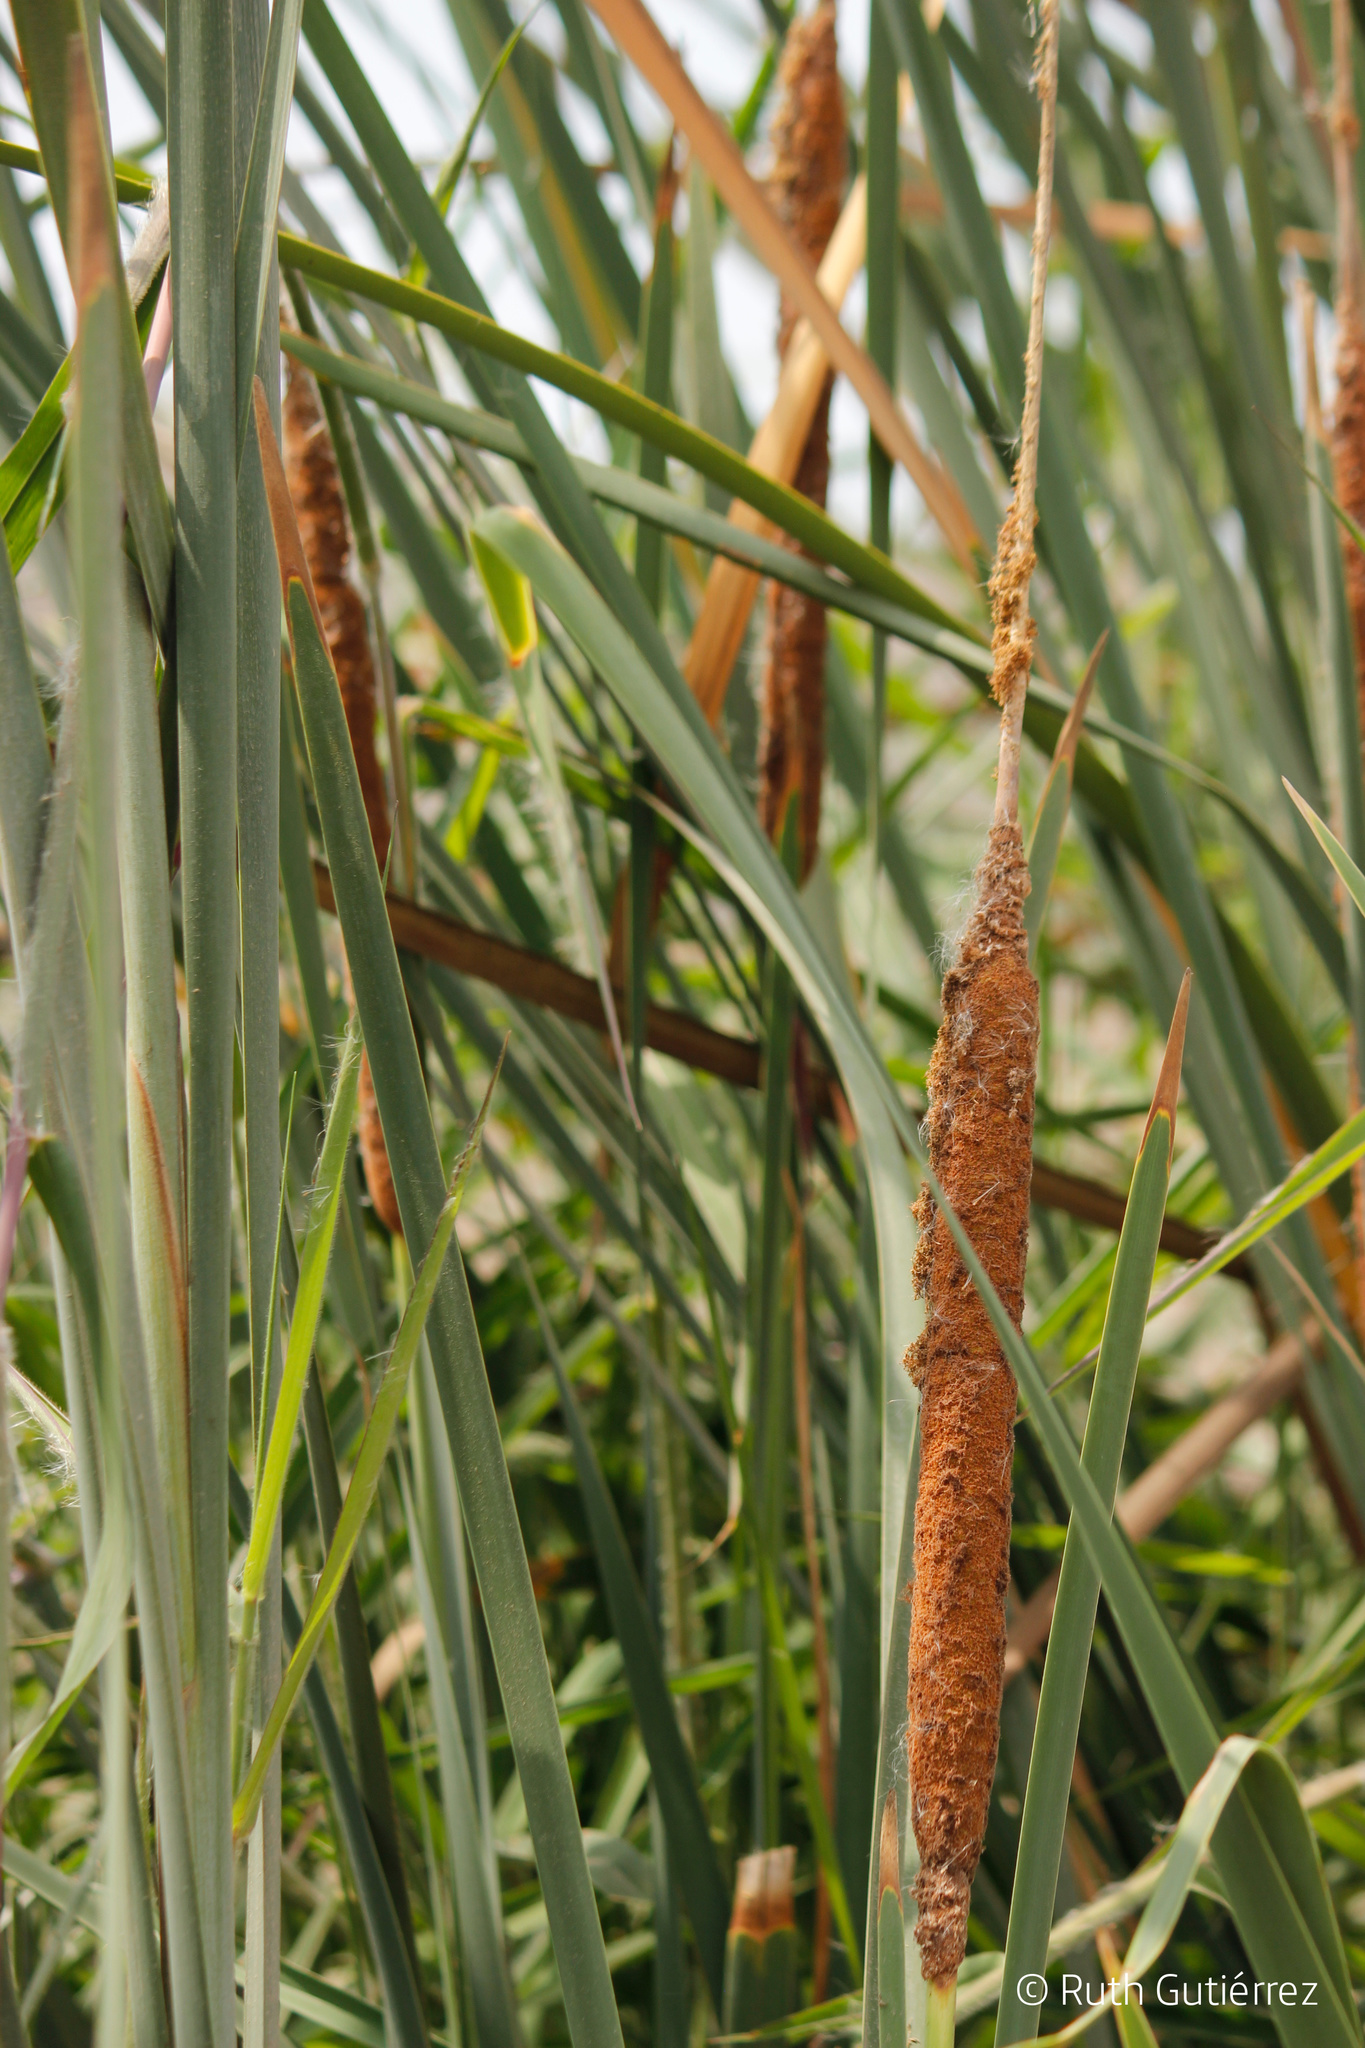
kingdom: Plantae
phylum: Tracheophyta
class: Liliopsida
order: Poales
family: Typhaceae
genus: Typha
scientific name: Typha domingensis
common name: Southern cattail
